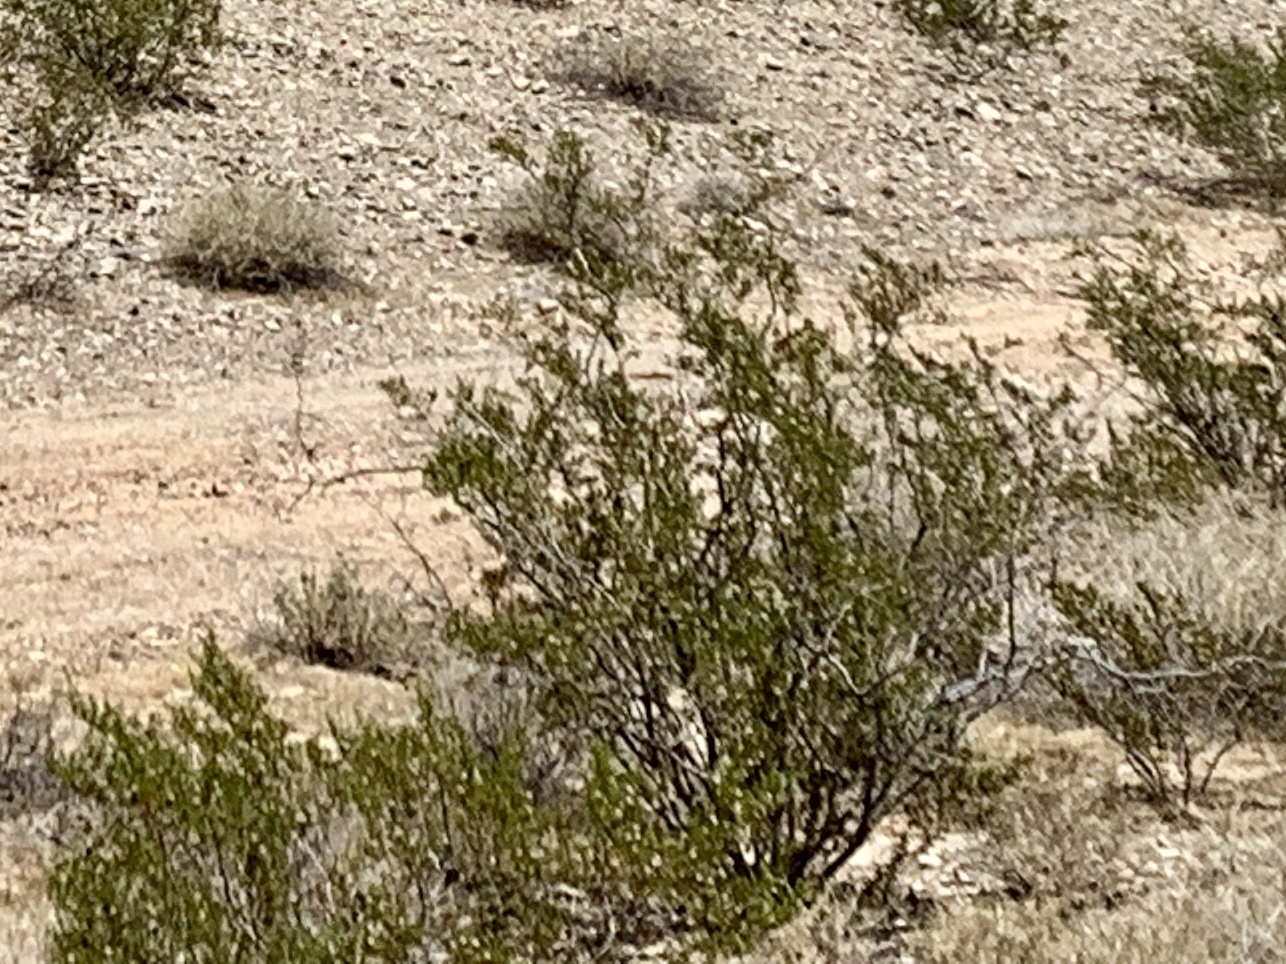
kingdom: Plantae
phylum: Tracheophyta
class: Magnoliopsida
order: Zygophyllales
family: Zygophyllaceae
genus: Larrea
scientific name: Larrea tridentata
